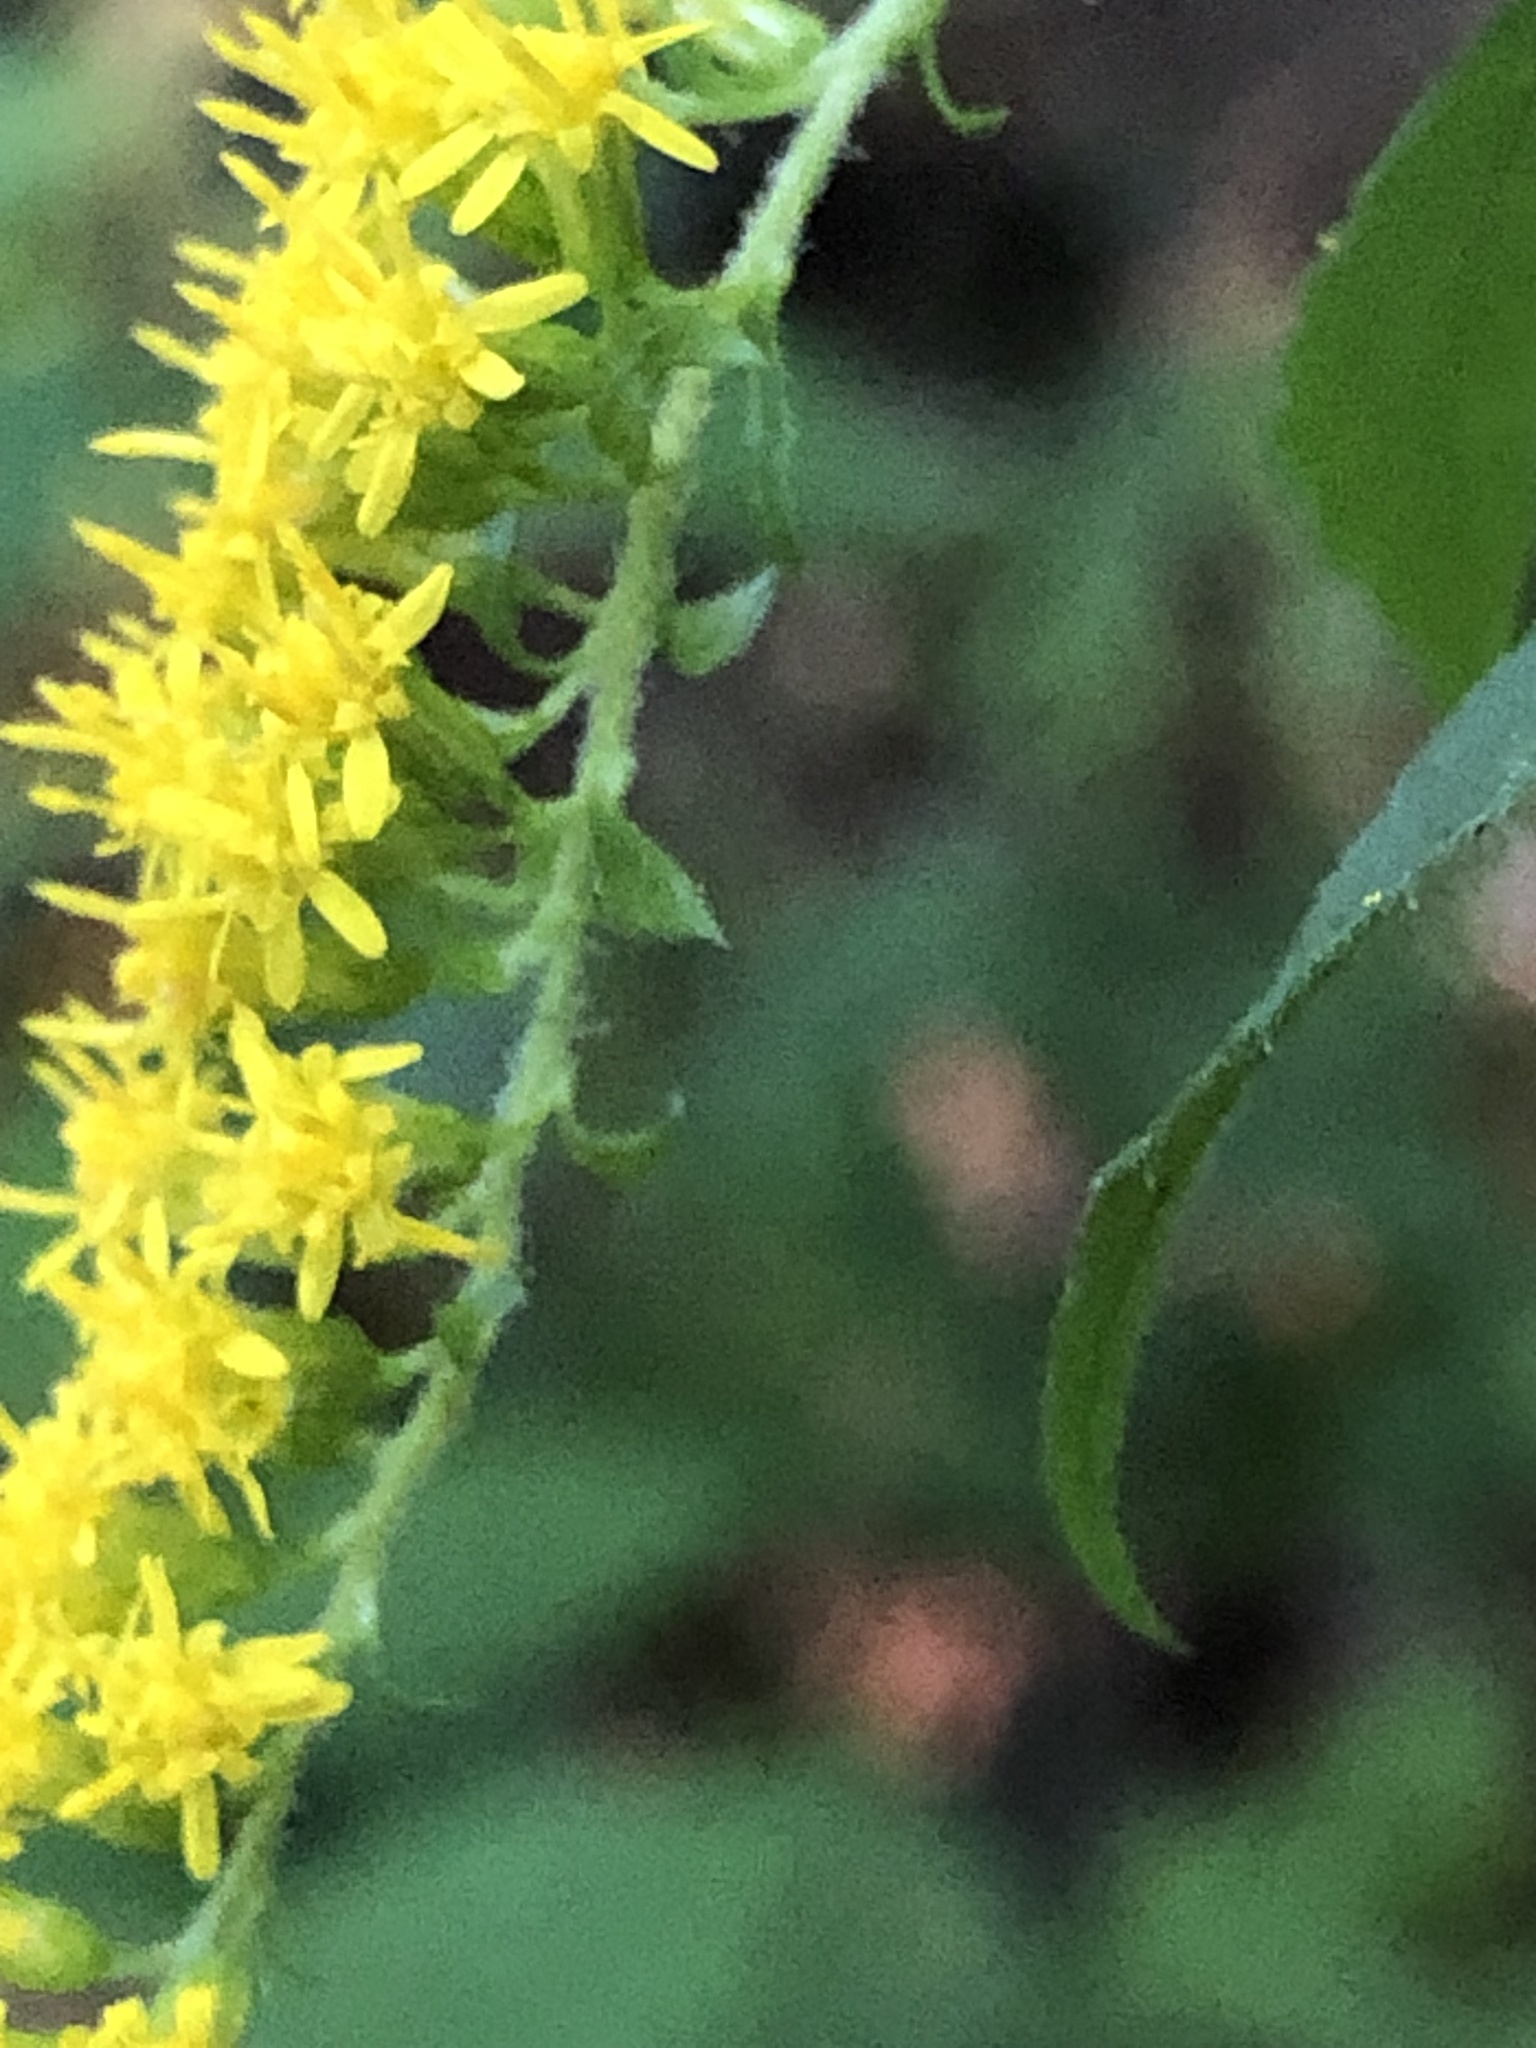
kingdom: Plantae
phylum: Tracheophyta
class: Magnoliopsida
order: Asterales
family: Asteraceae
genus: Solidago
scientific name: Solidago rugosa
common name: Rough-stemmed goldenrod
